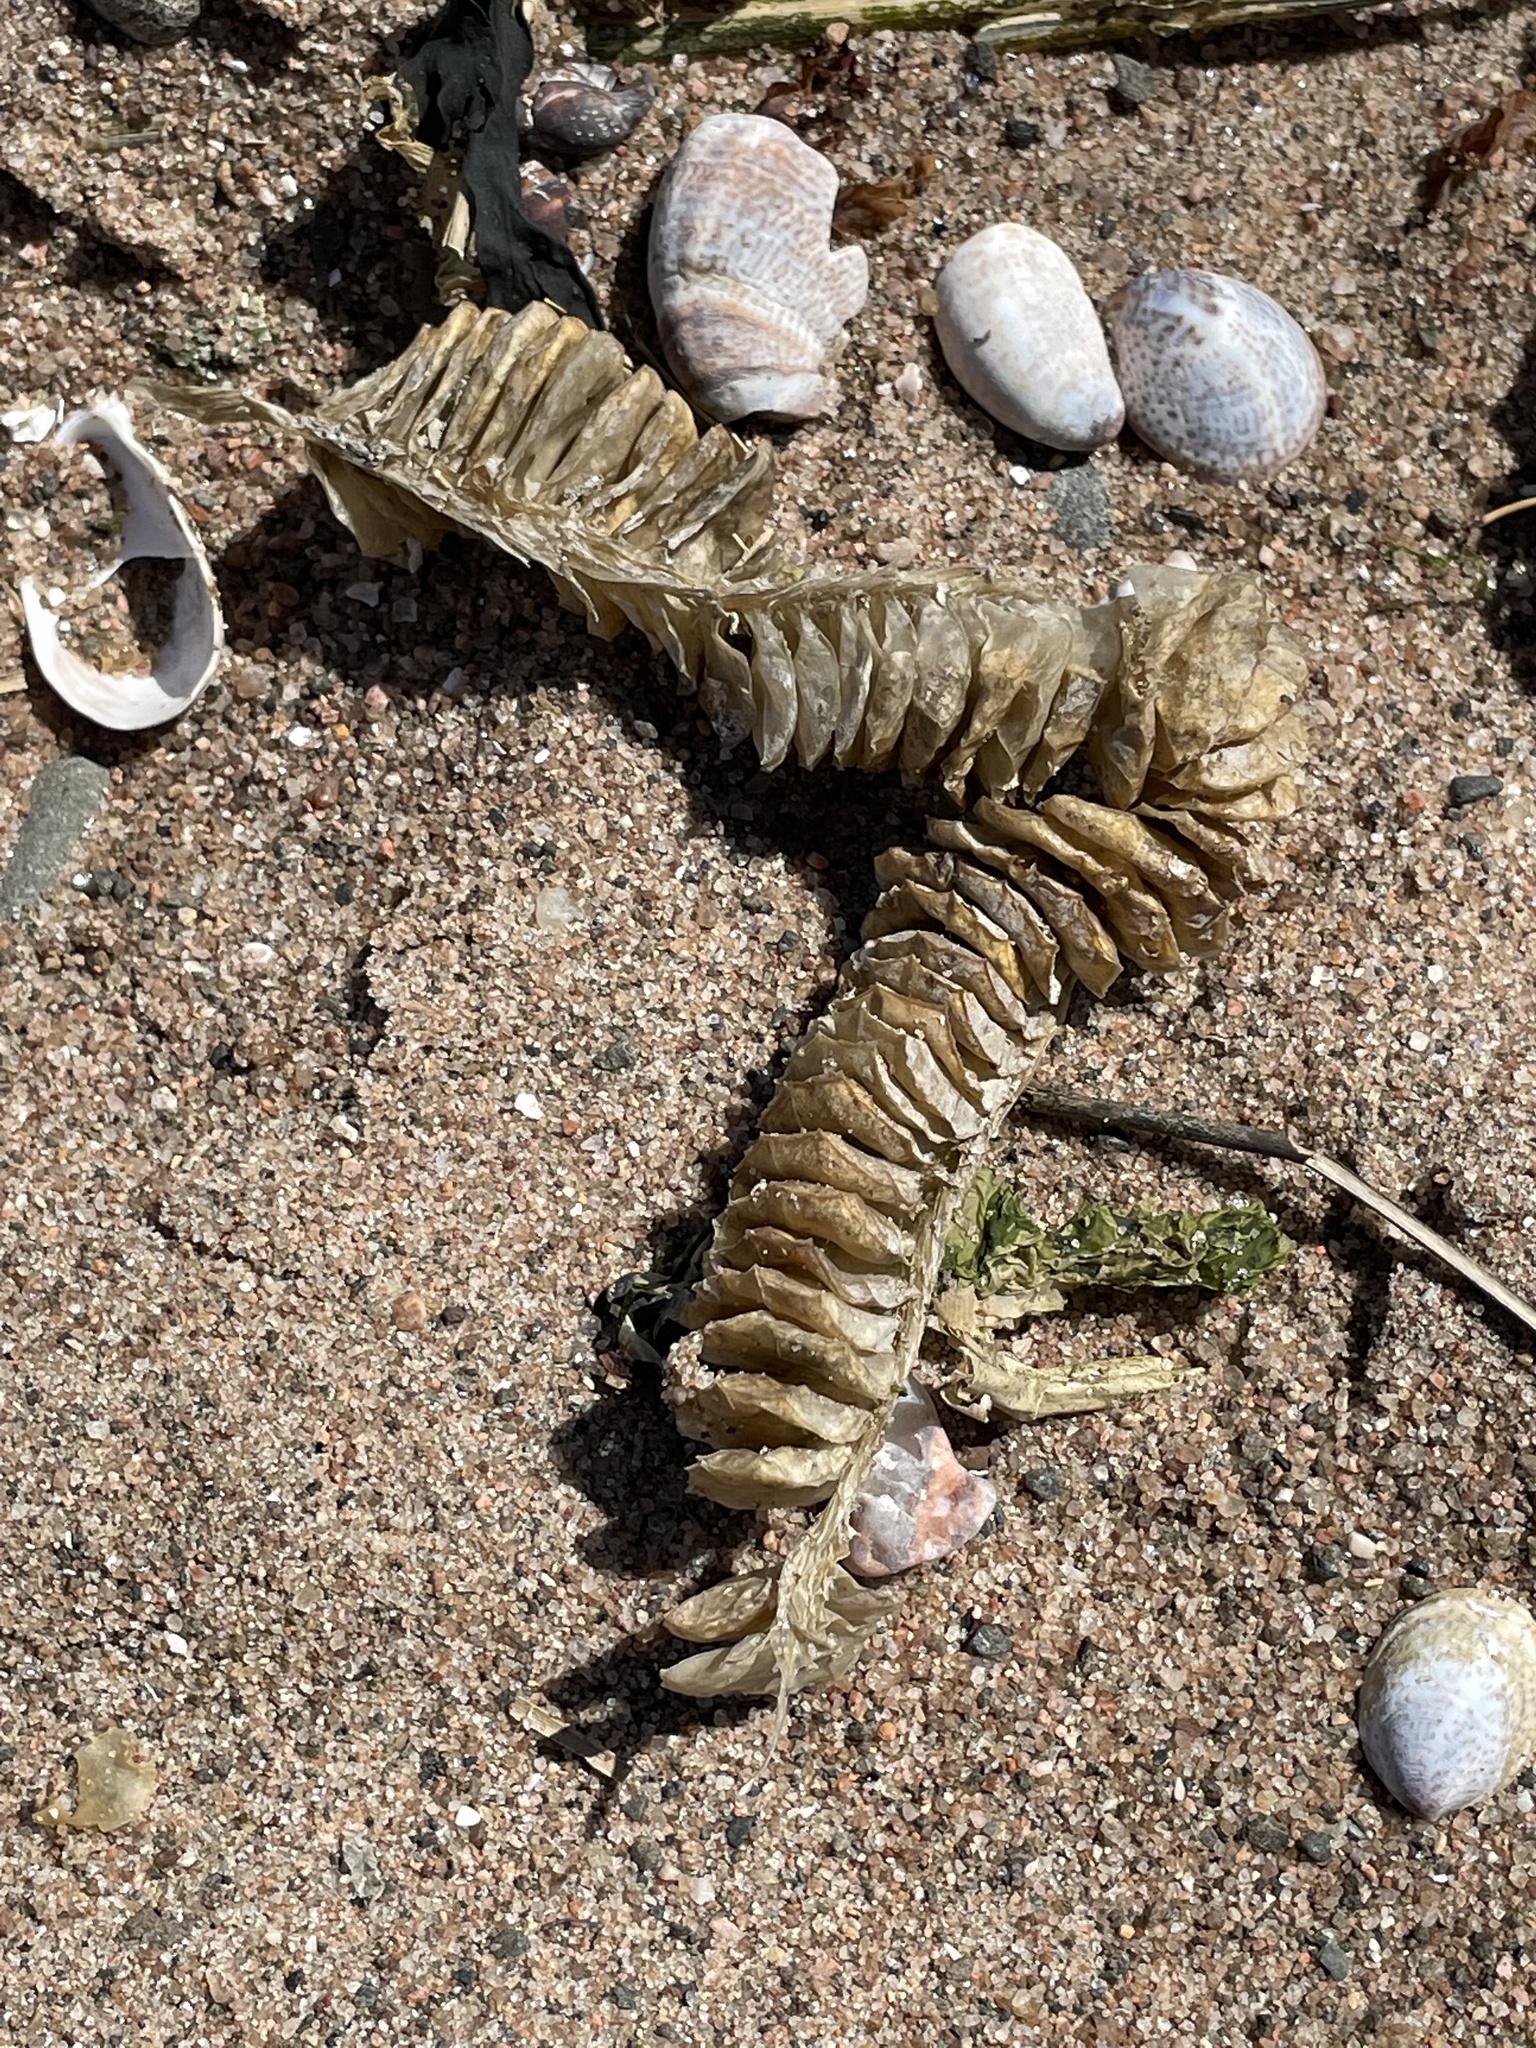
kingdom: Animalia
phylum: Mollusca
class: Gastropoda
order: Neogastropoda
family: Busyconidae
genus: Busycotypus
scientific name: Busycotypus canaliculatus
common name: Channeled whelk
